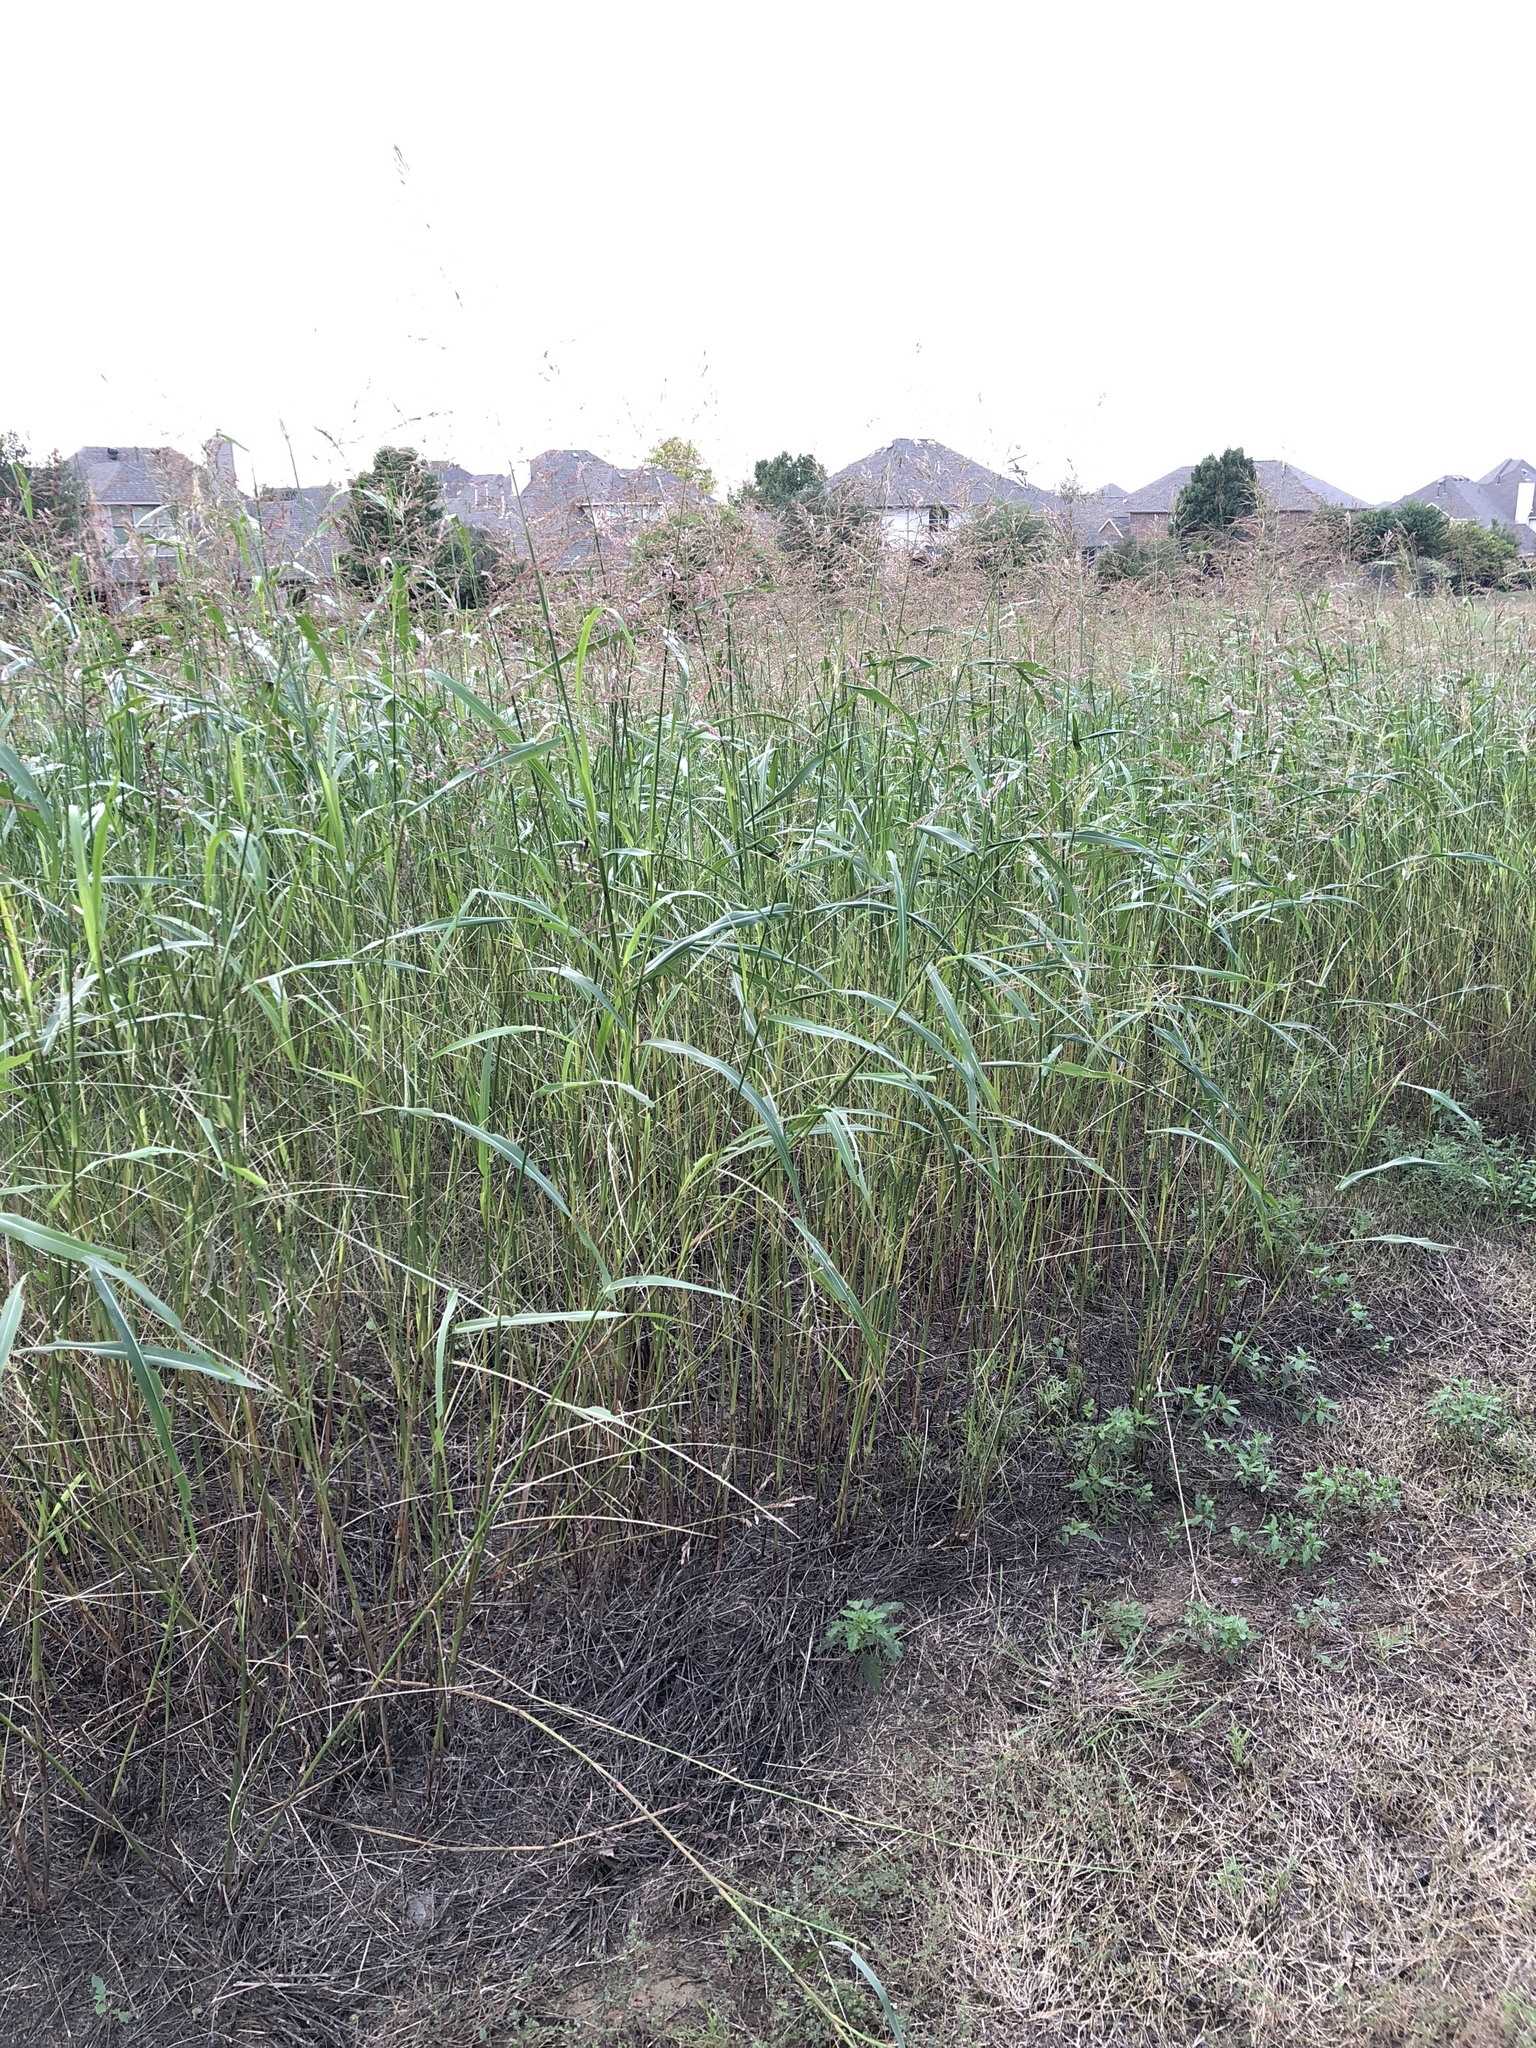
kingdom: Plantae
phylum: Tracheophyta
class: Liliopsida
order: Poales
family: Poaceae
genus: Sorghum
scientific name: Sorghum halepense
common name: Johnson-grass
